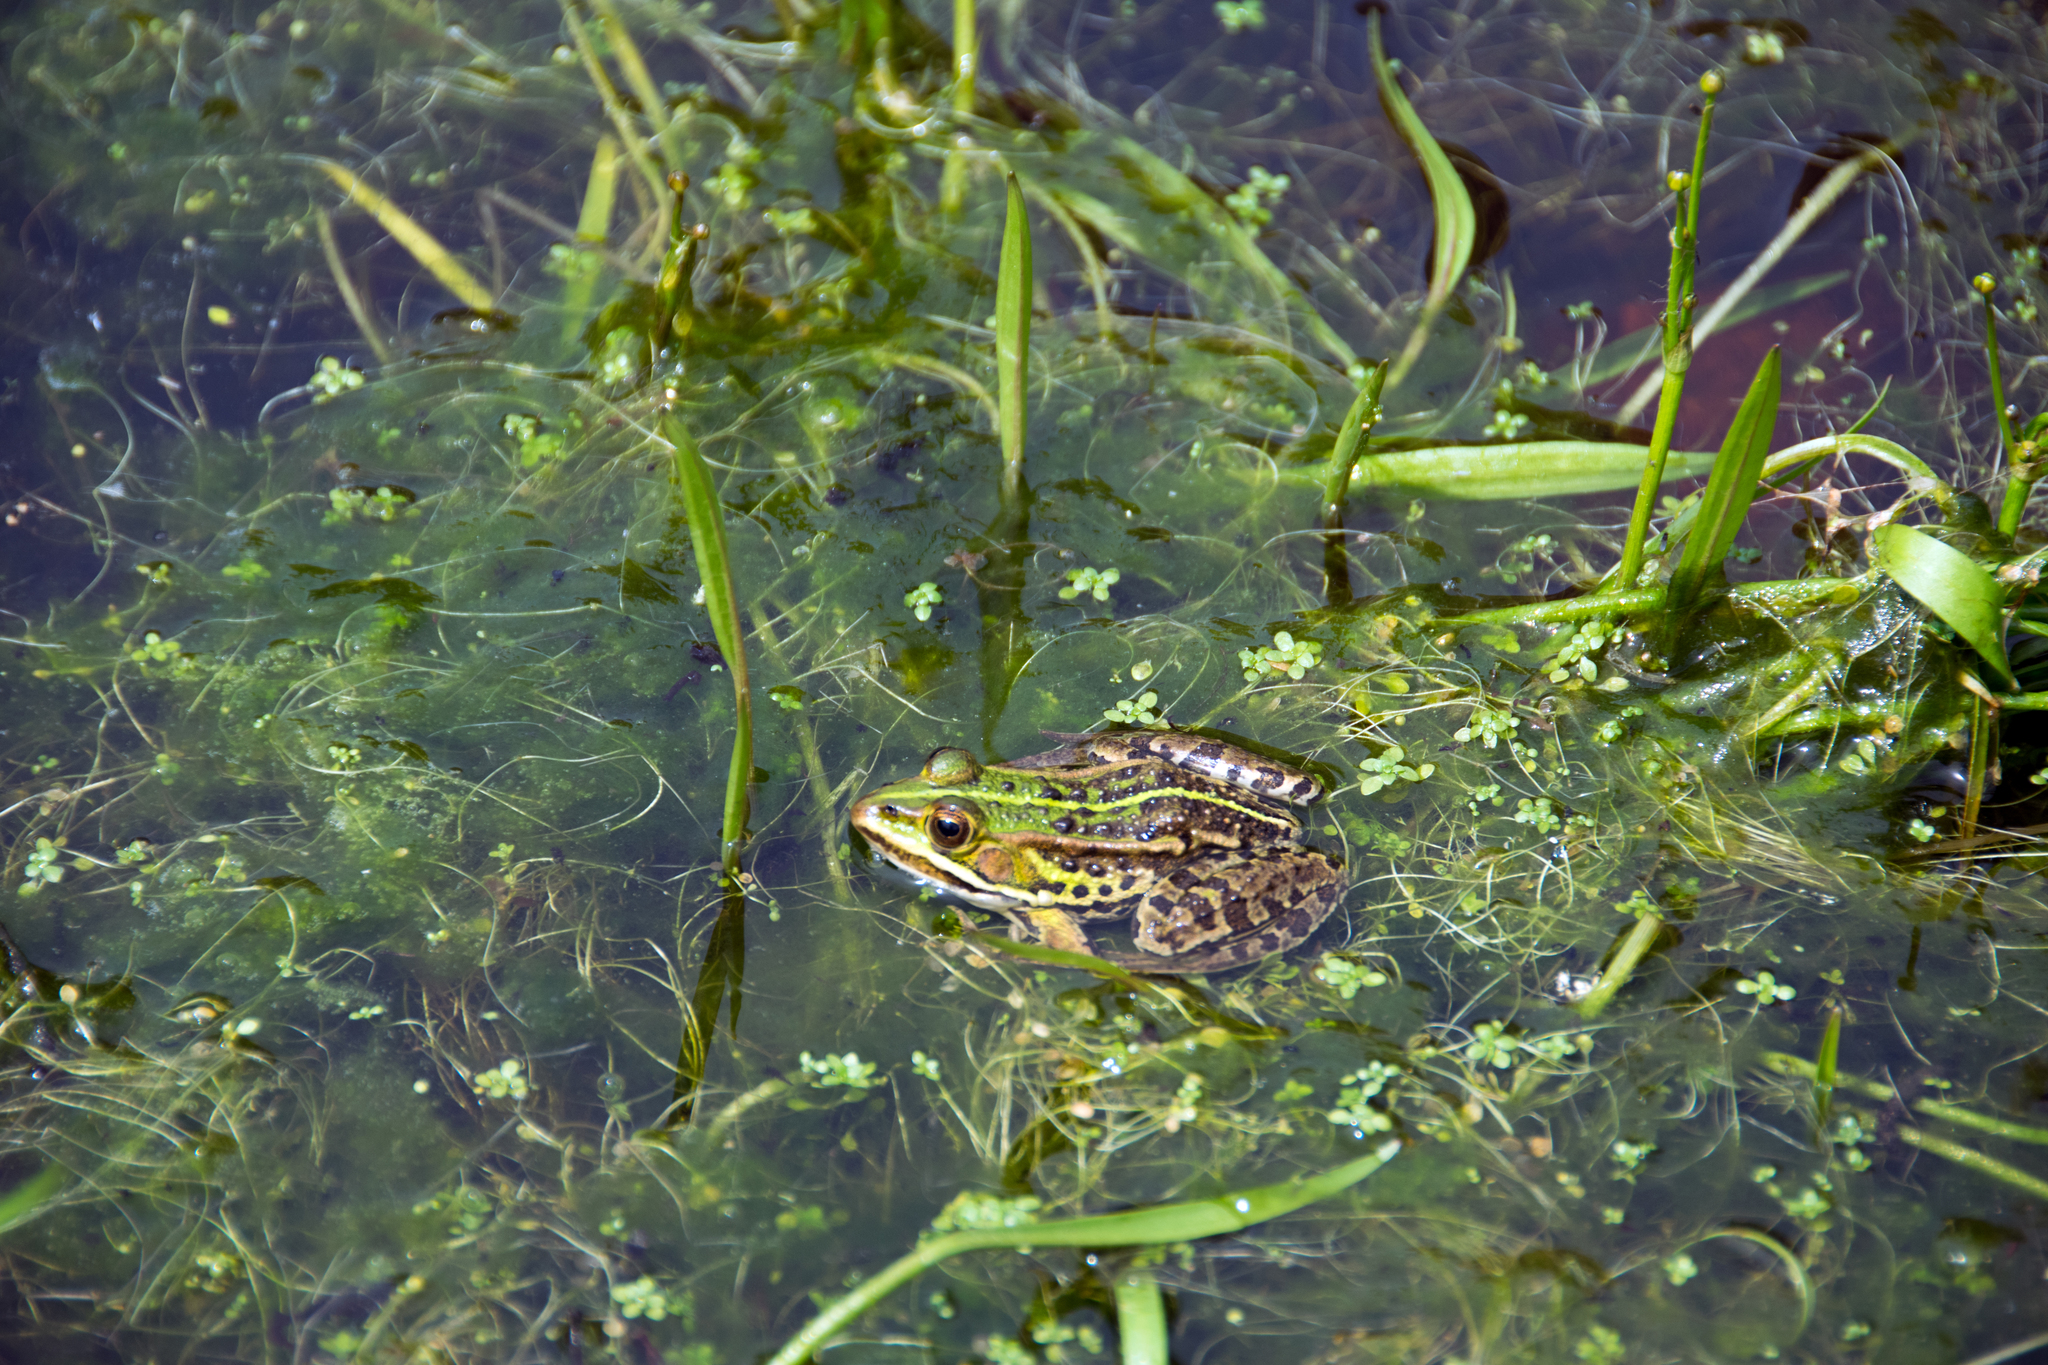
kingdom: Animalia
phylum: Chordata
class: Amphibia
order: Anura
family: Ranidae
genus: Pelophylax
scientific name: Pelophylax bergeri
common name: Italian pool frog
